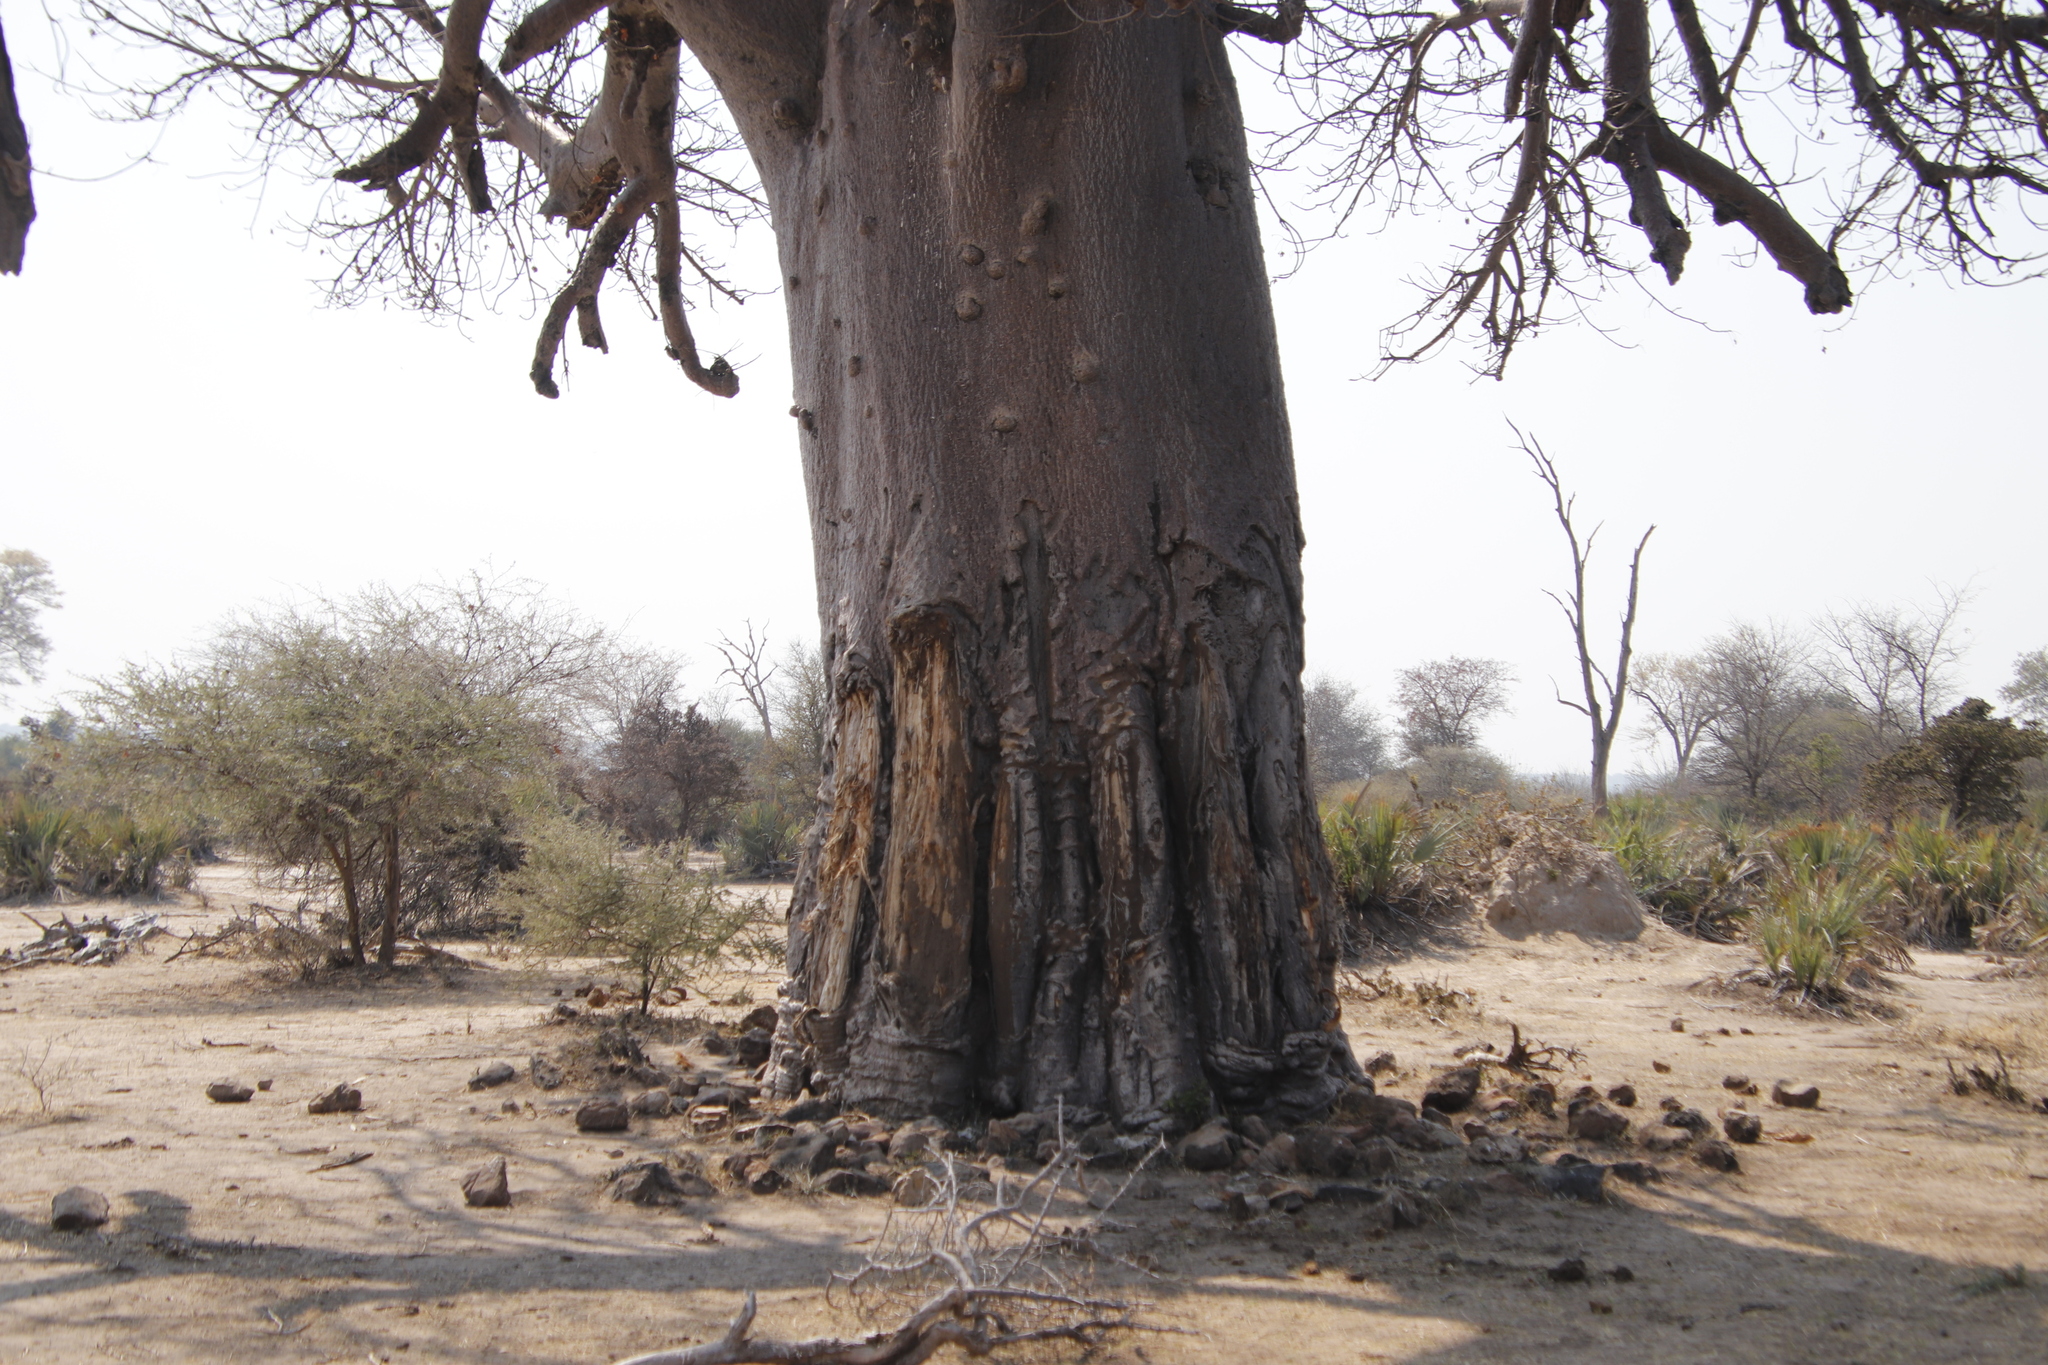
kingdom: Plantae
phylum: Tracheophyta
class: Magnoliopsida
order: Malvales
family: Malvaceae
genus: Adansonia
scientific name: Adansonia digitata
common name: Dead-rat-tree
